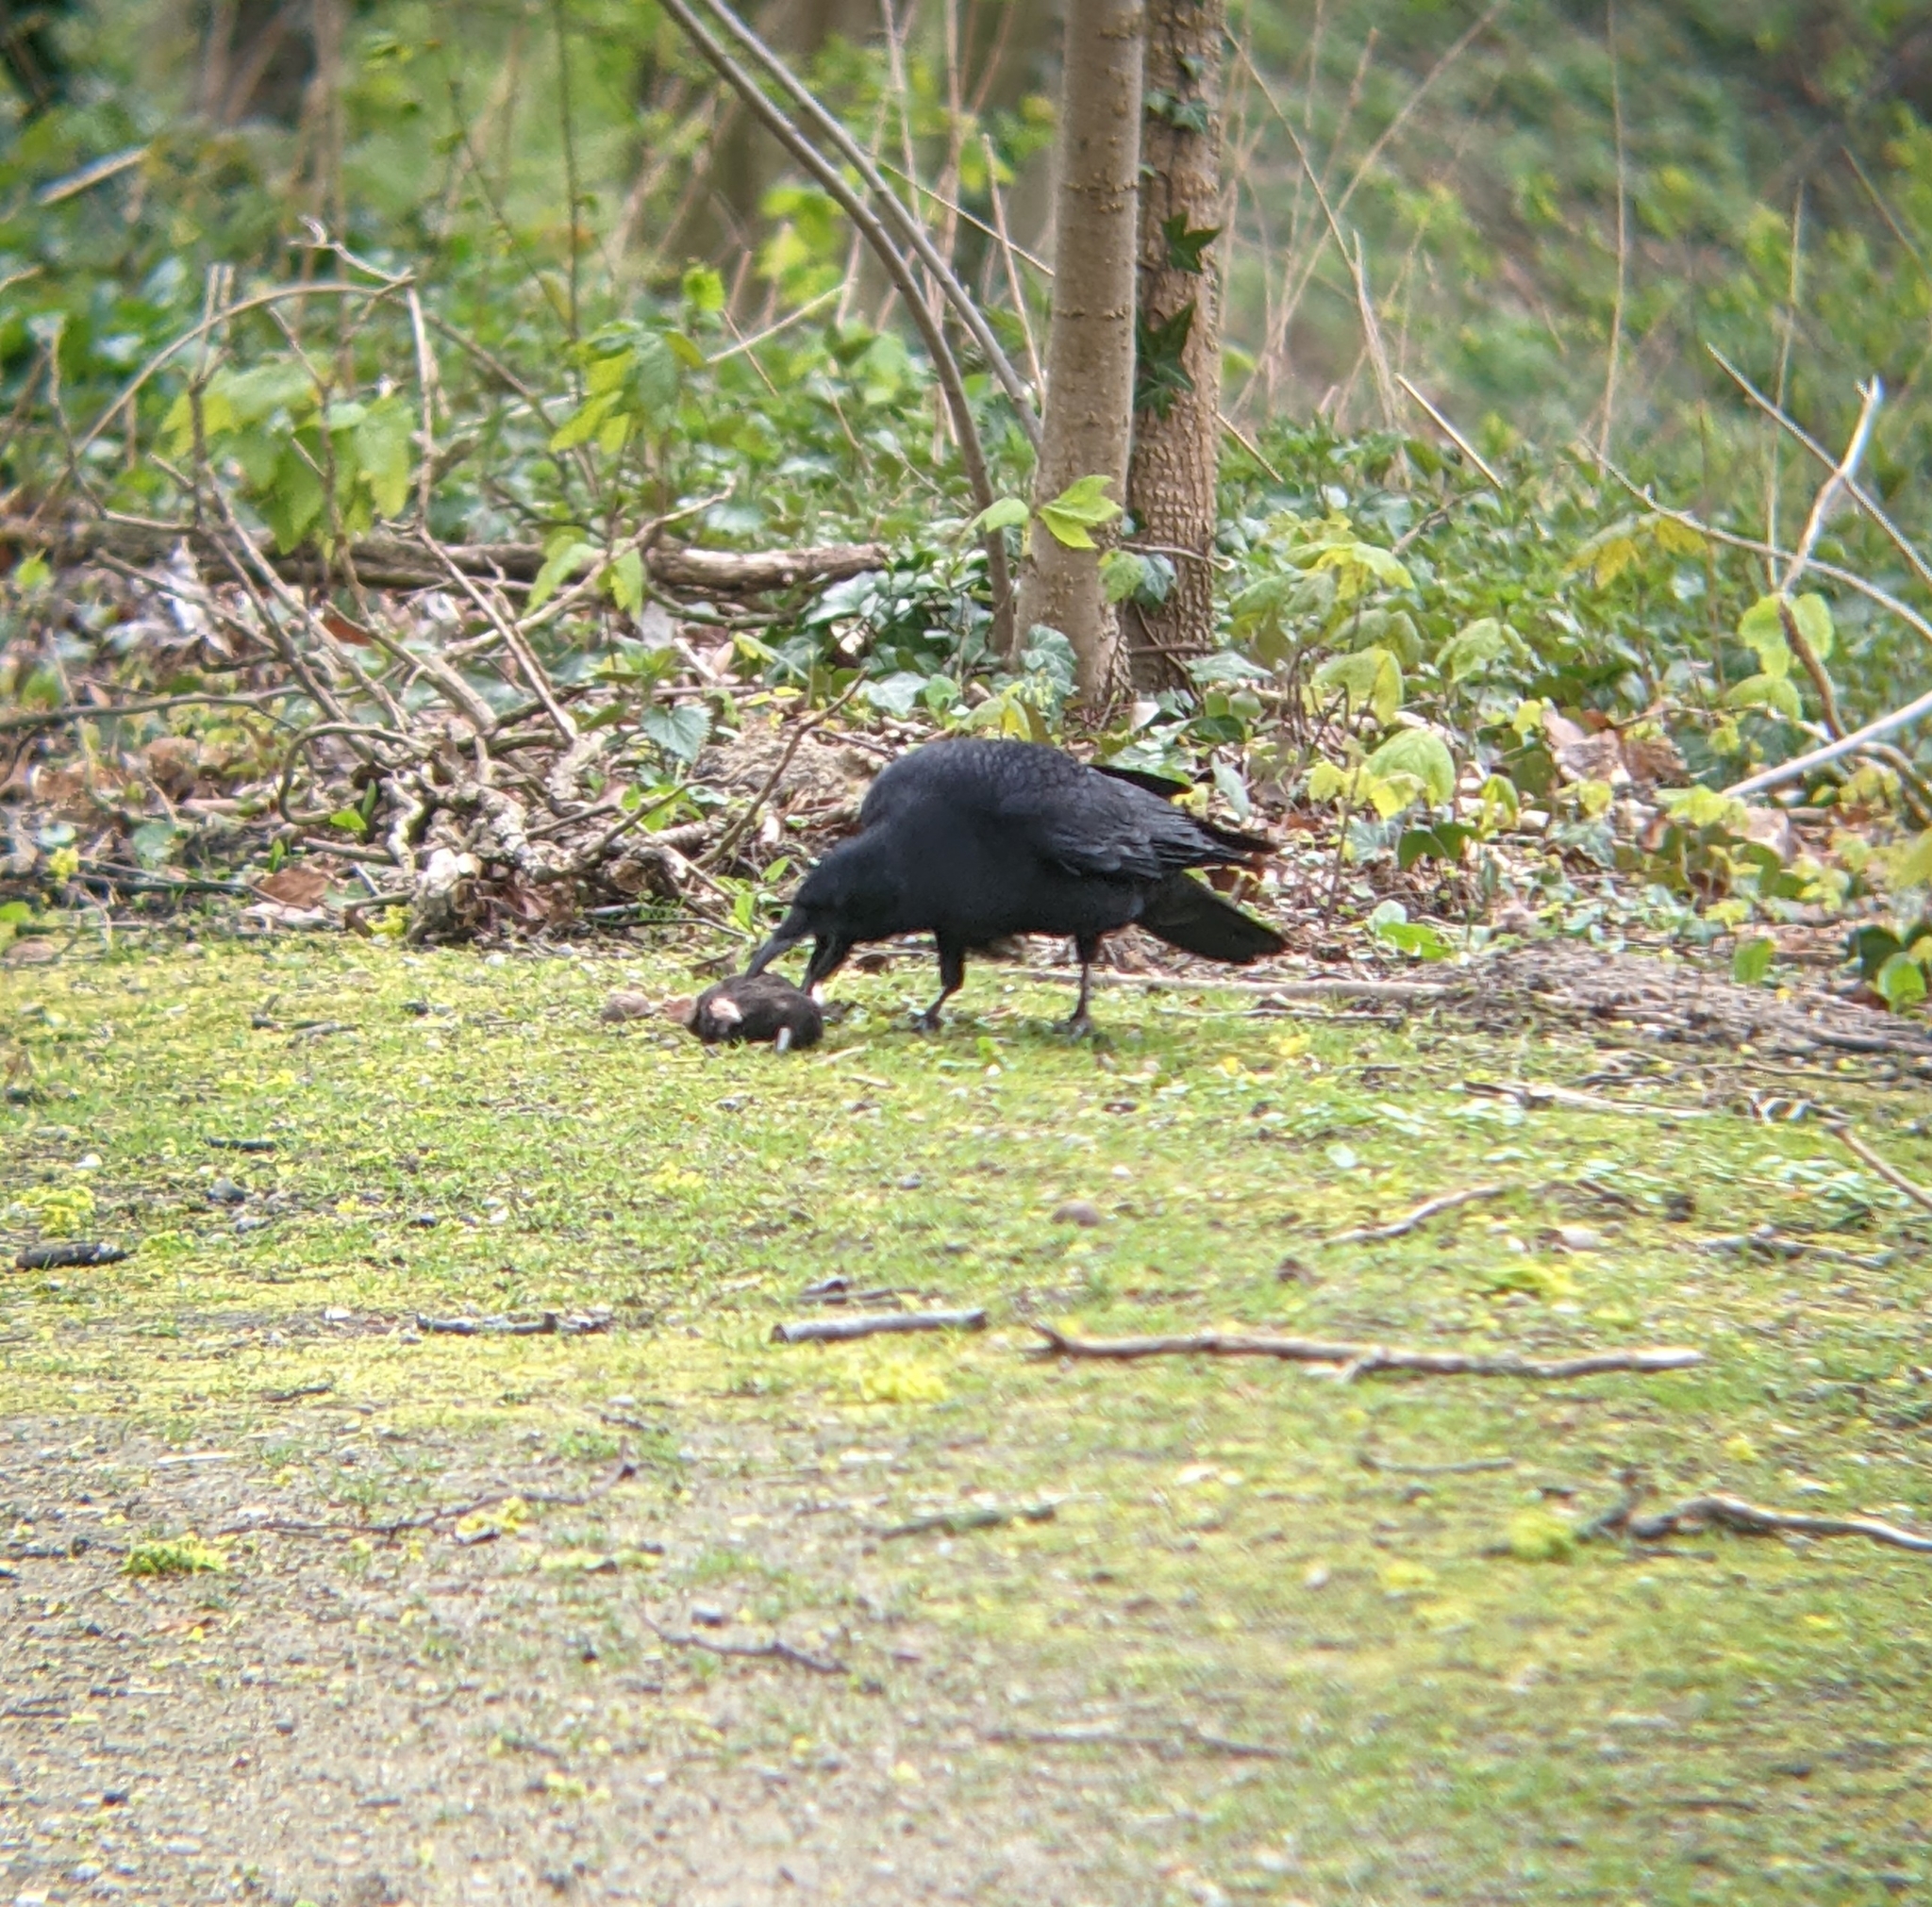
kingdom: Animalia
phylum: Chordata
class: Aves
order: Passeriformes
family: Corvidae
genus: Corvus
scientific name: Corvus corone
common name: Carrion crow
